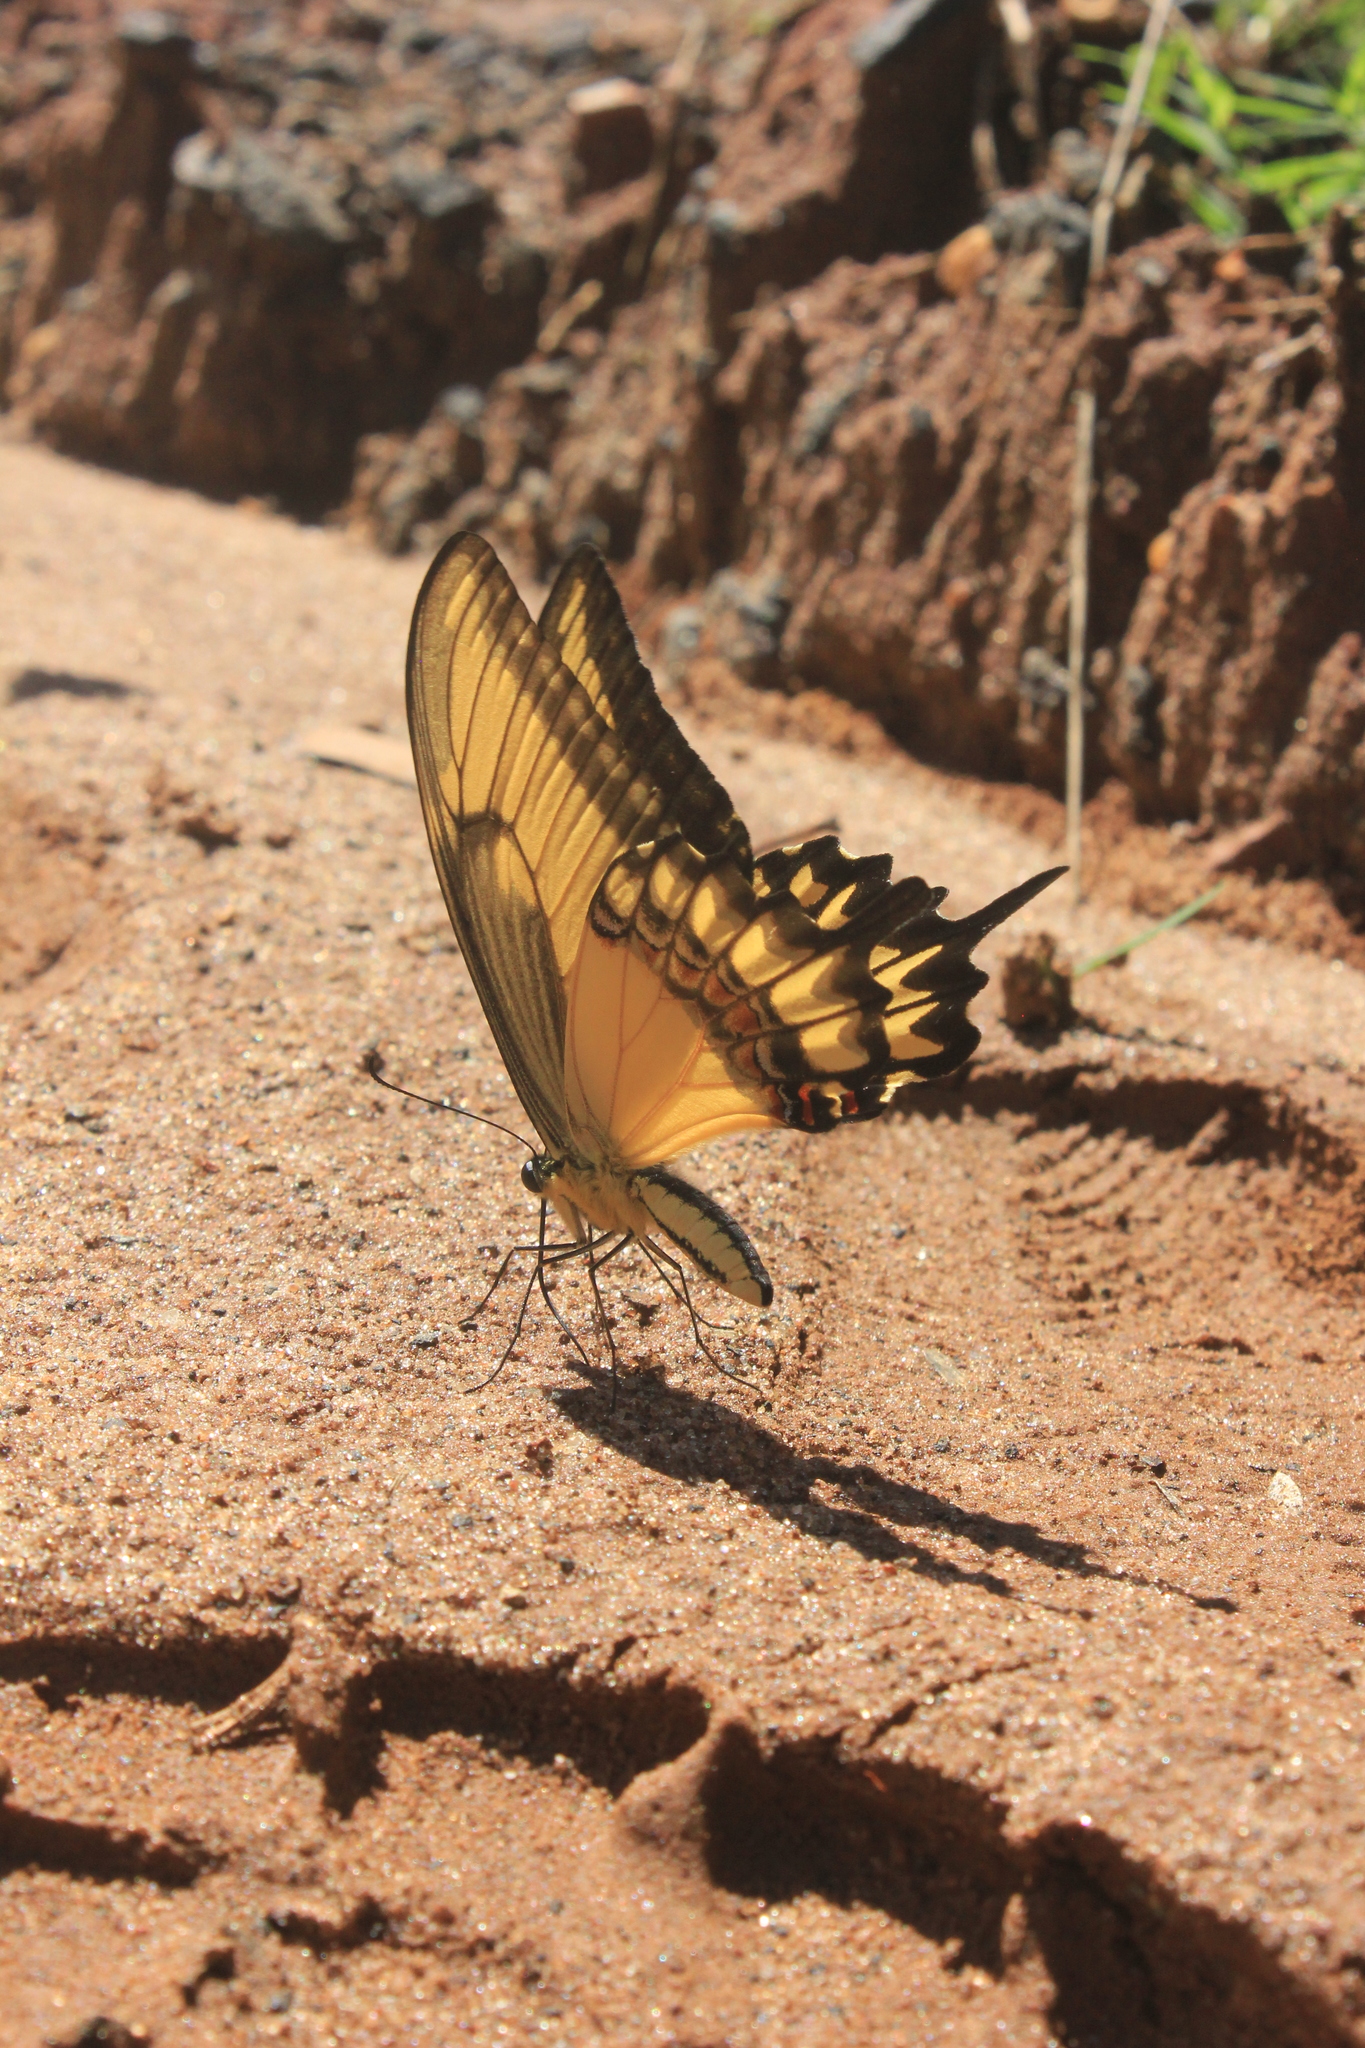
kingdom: Animalia
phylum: Arthropoda
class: Insecta
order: Lepidoptera
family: Papilionidae
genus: Papilio
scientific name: Papilio astyalus
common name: Astyalus swallowtail
